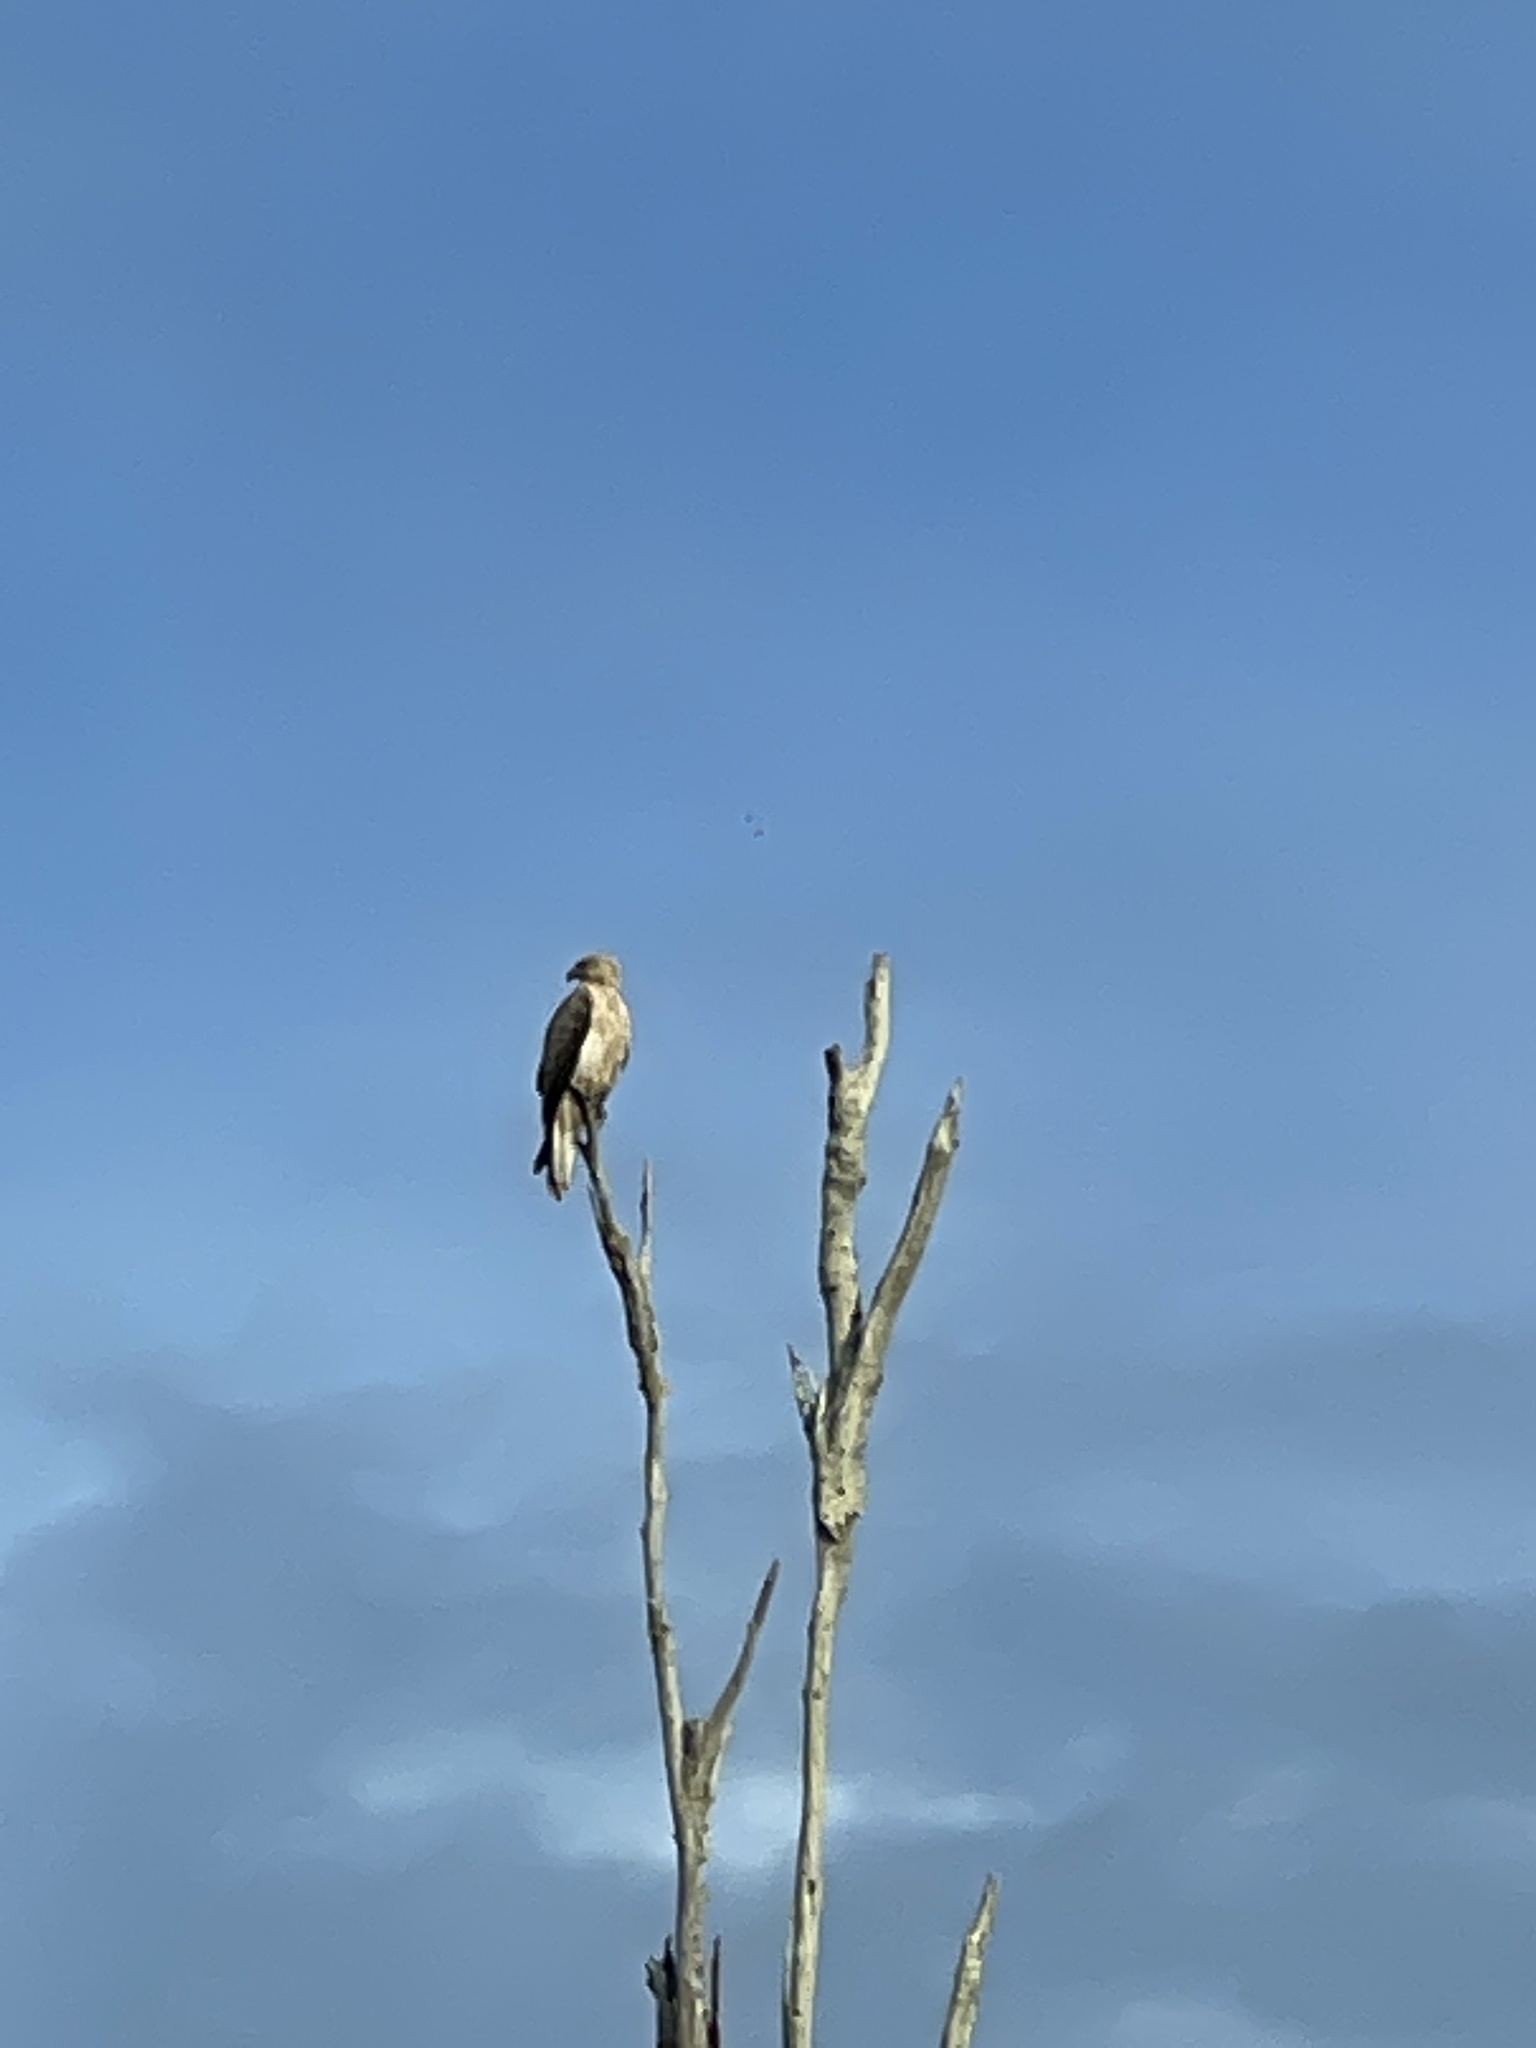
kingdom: Animalia
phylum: Chordata
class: Aves
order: Accipitriformes
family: Accipitridae
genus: Haliaeetus
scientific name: Haliaeetus leucogaster
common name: White-bellied sea eagle
